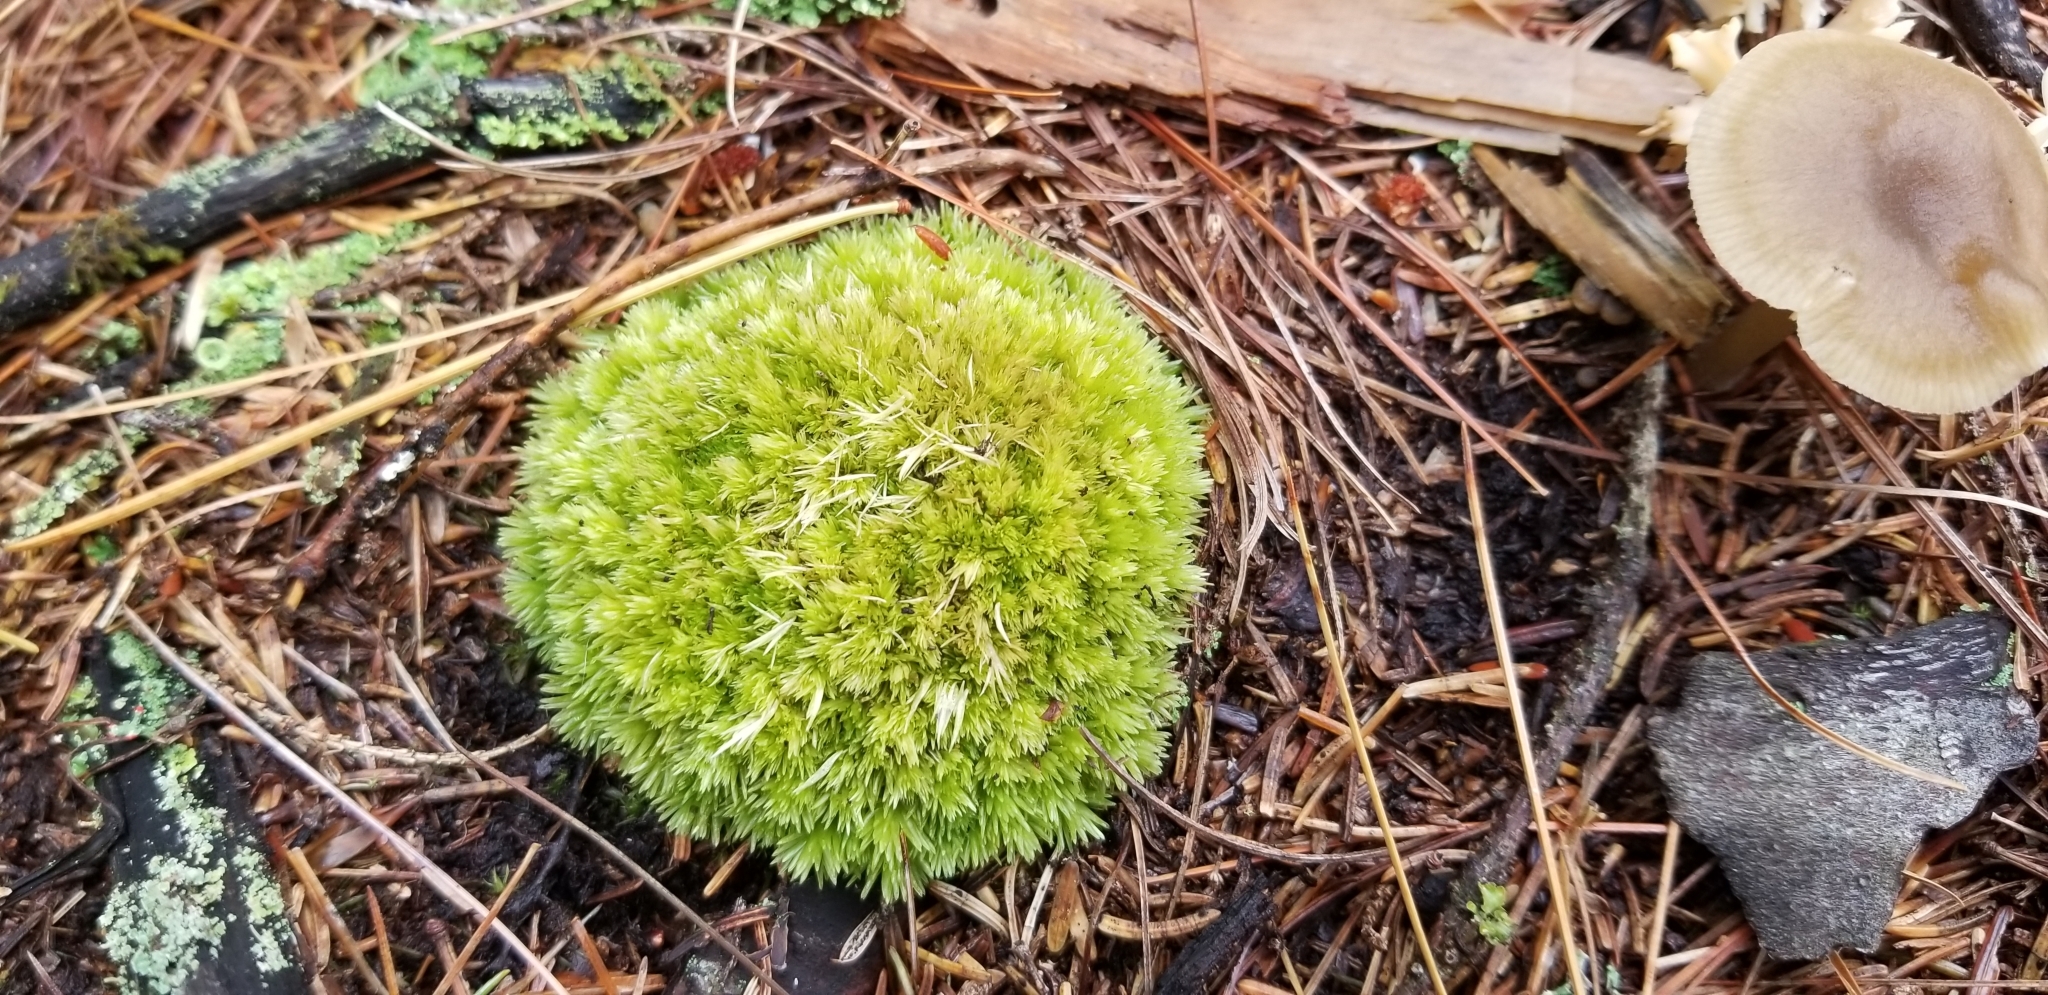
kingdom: Plantae
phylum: Bryophyta
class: Bryopsida
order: Dicranales
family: Leucobryaceae
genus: Leucobryum
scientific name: Leucobryum glaucum
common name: Large white-moss
